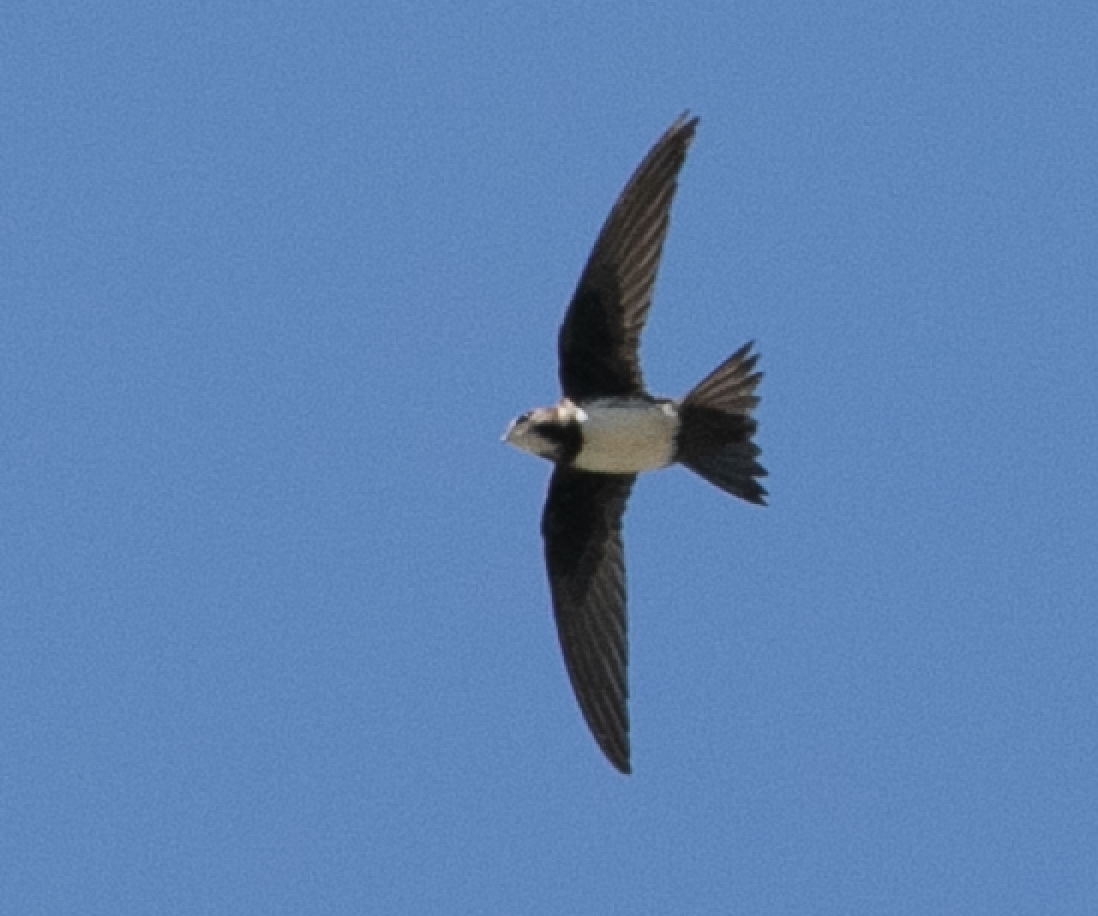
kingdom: Animalia
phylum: Chordata
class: Aves
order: Apodiformes
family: Apodidae
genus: Tachymarptis
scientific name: Tachymarptis melba
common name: Alpine swift
